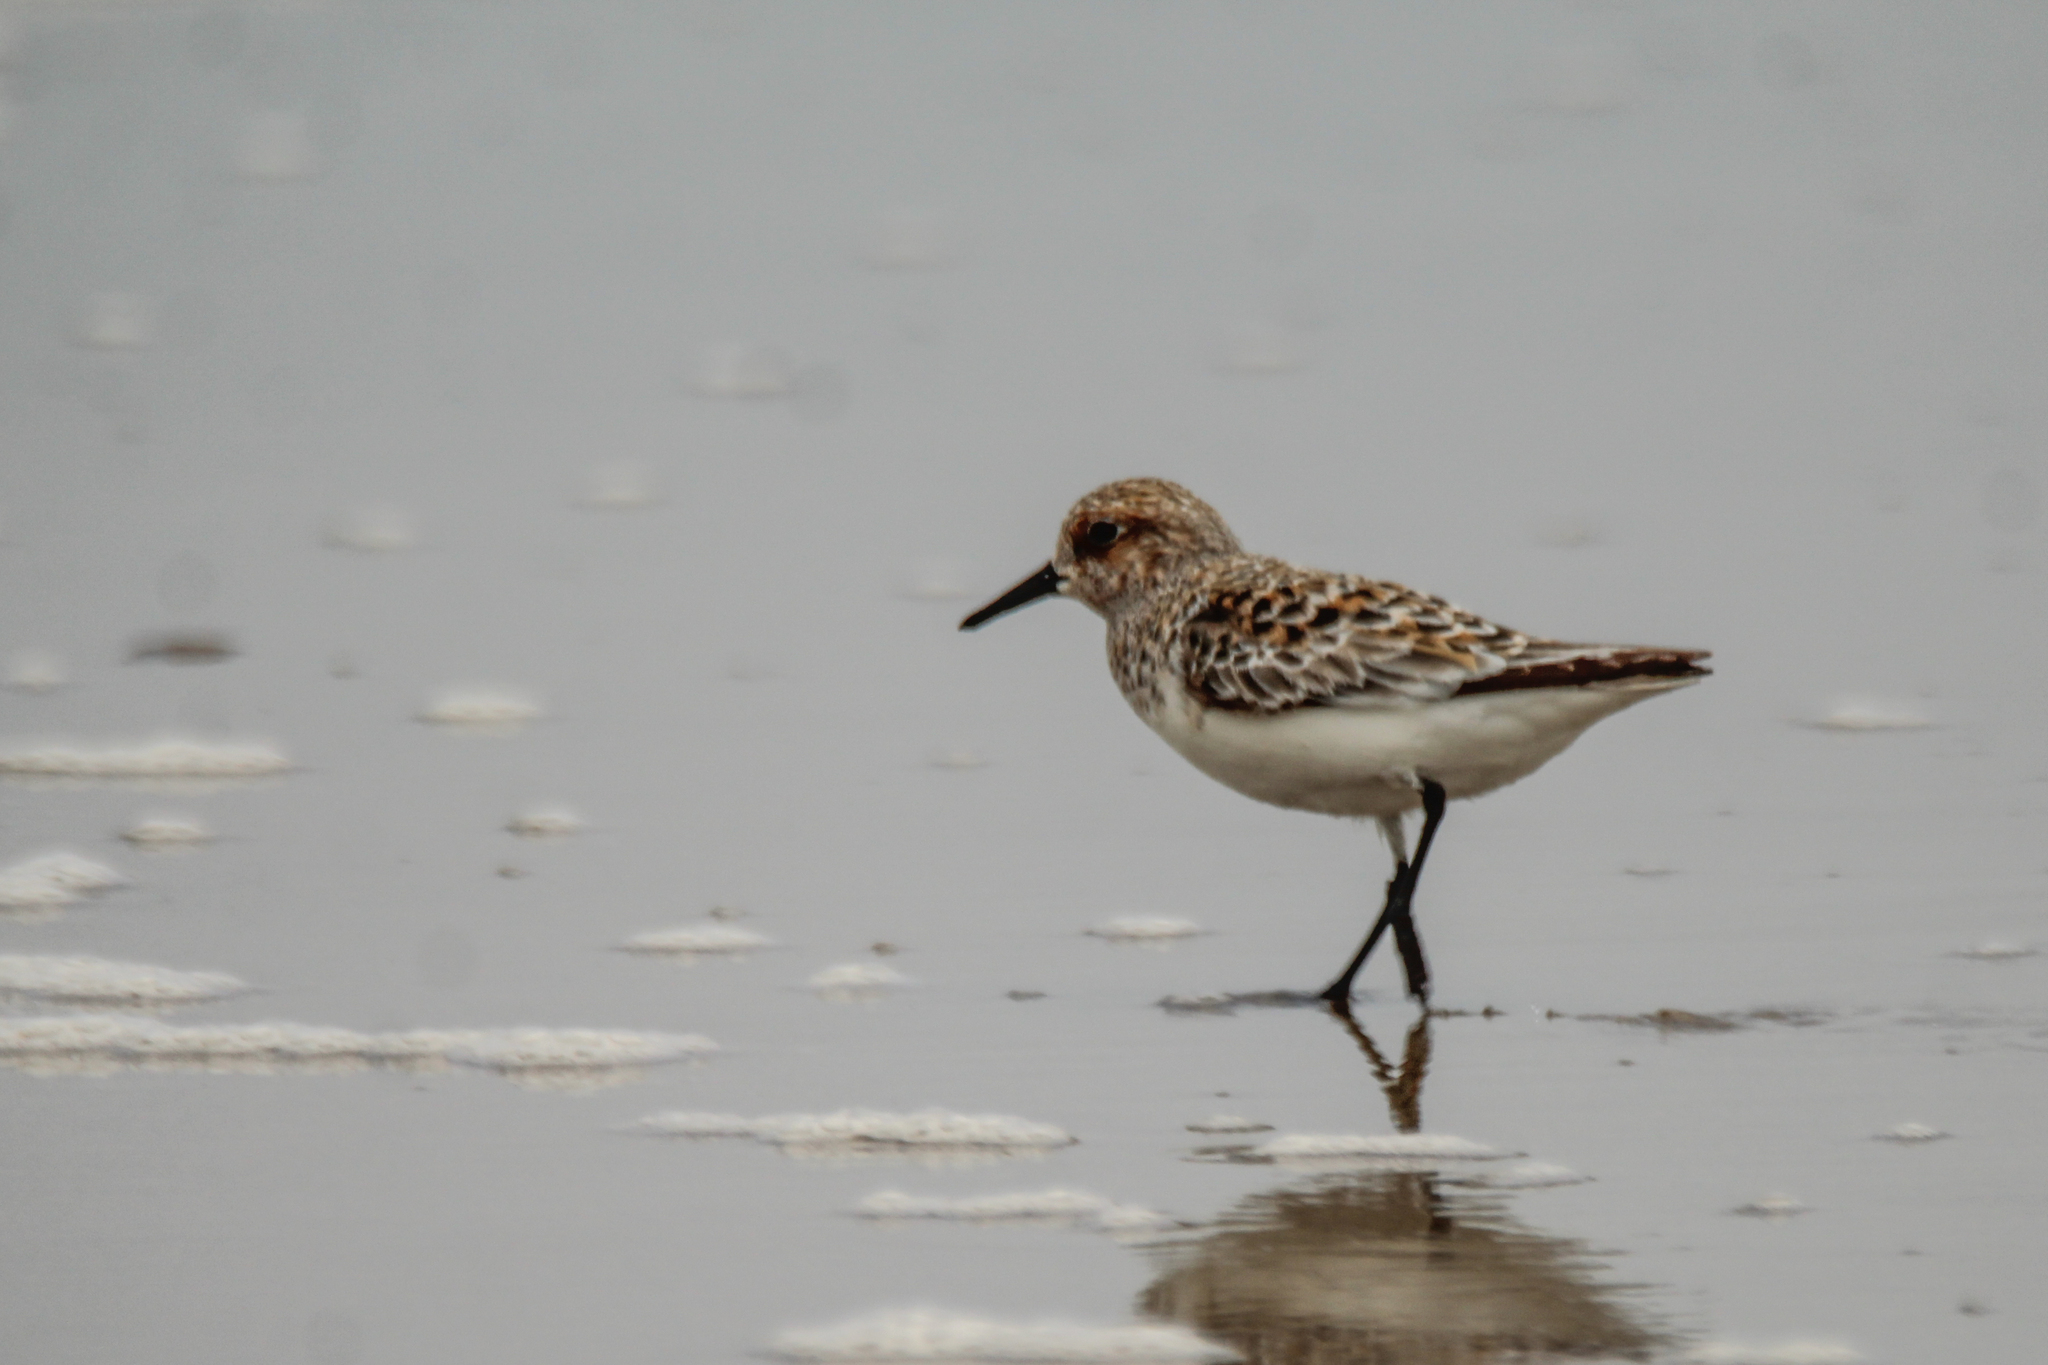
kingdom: Animalia
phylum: Chordata
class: Aves
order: Charadriiformes
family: Scolopacidae
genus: Calidris
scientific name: Calidris alba
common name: Sanderling
